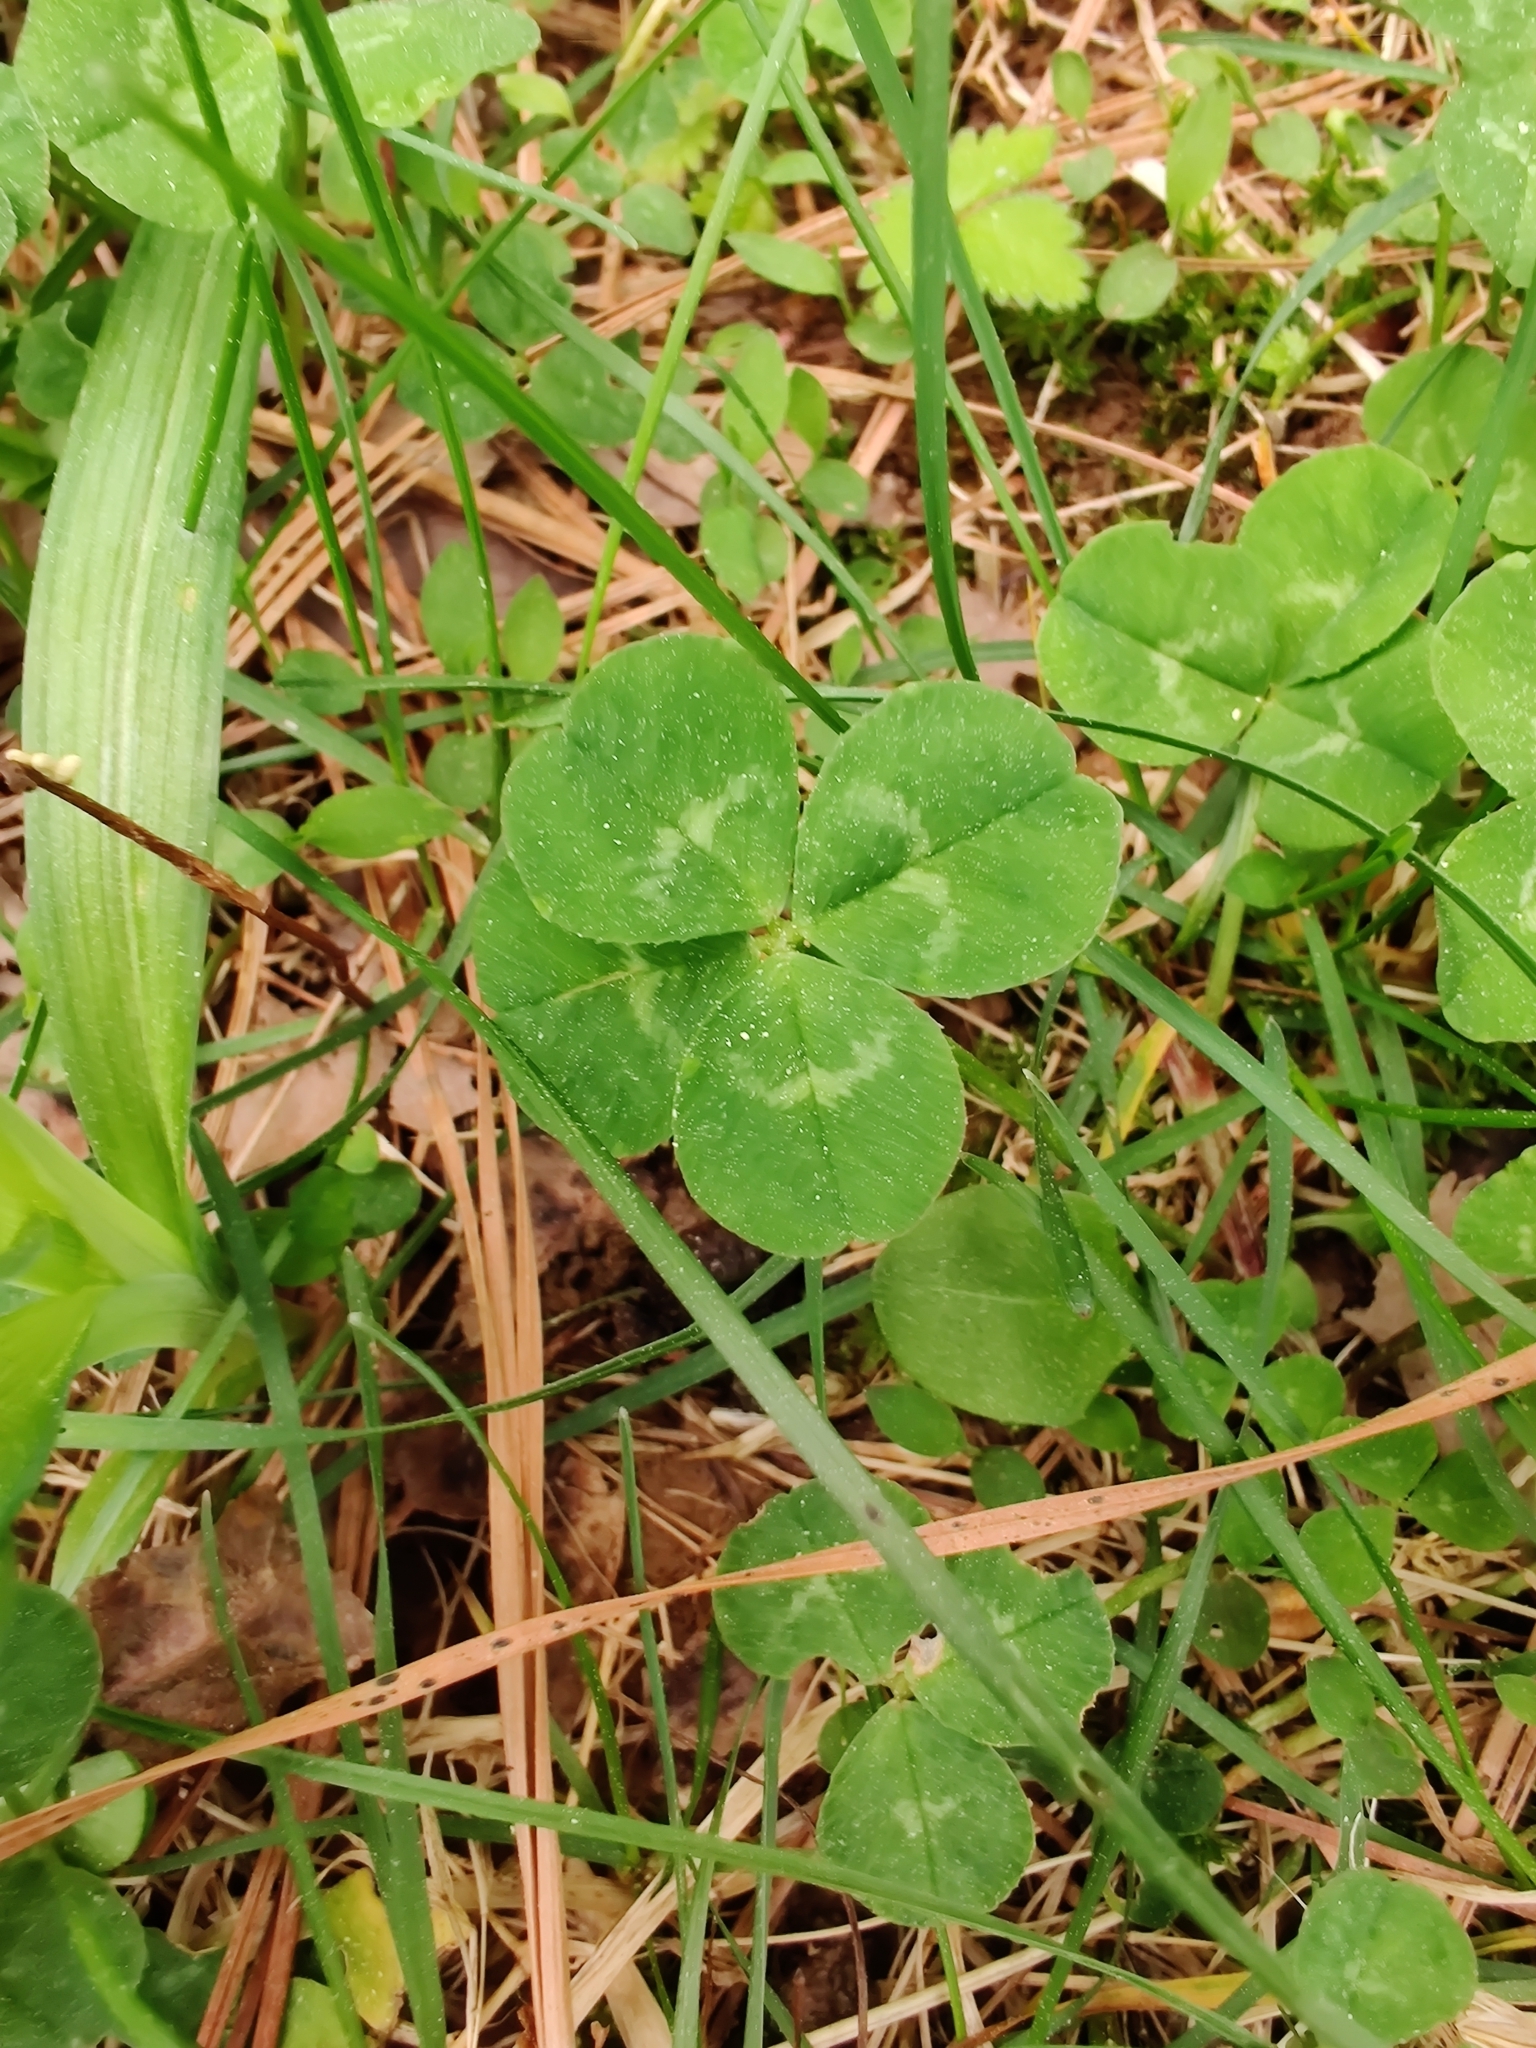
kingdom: Plantae
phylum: Tracheophyta
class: Magnoliopsida
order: Fabales
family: Fabaceae
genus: Trifolium
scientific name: Trifolium repens
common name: White clover
